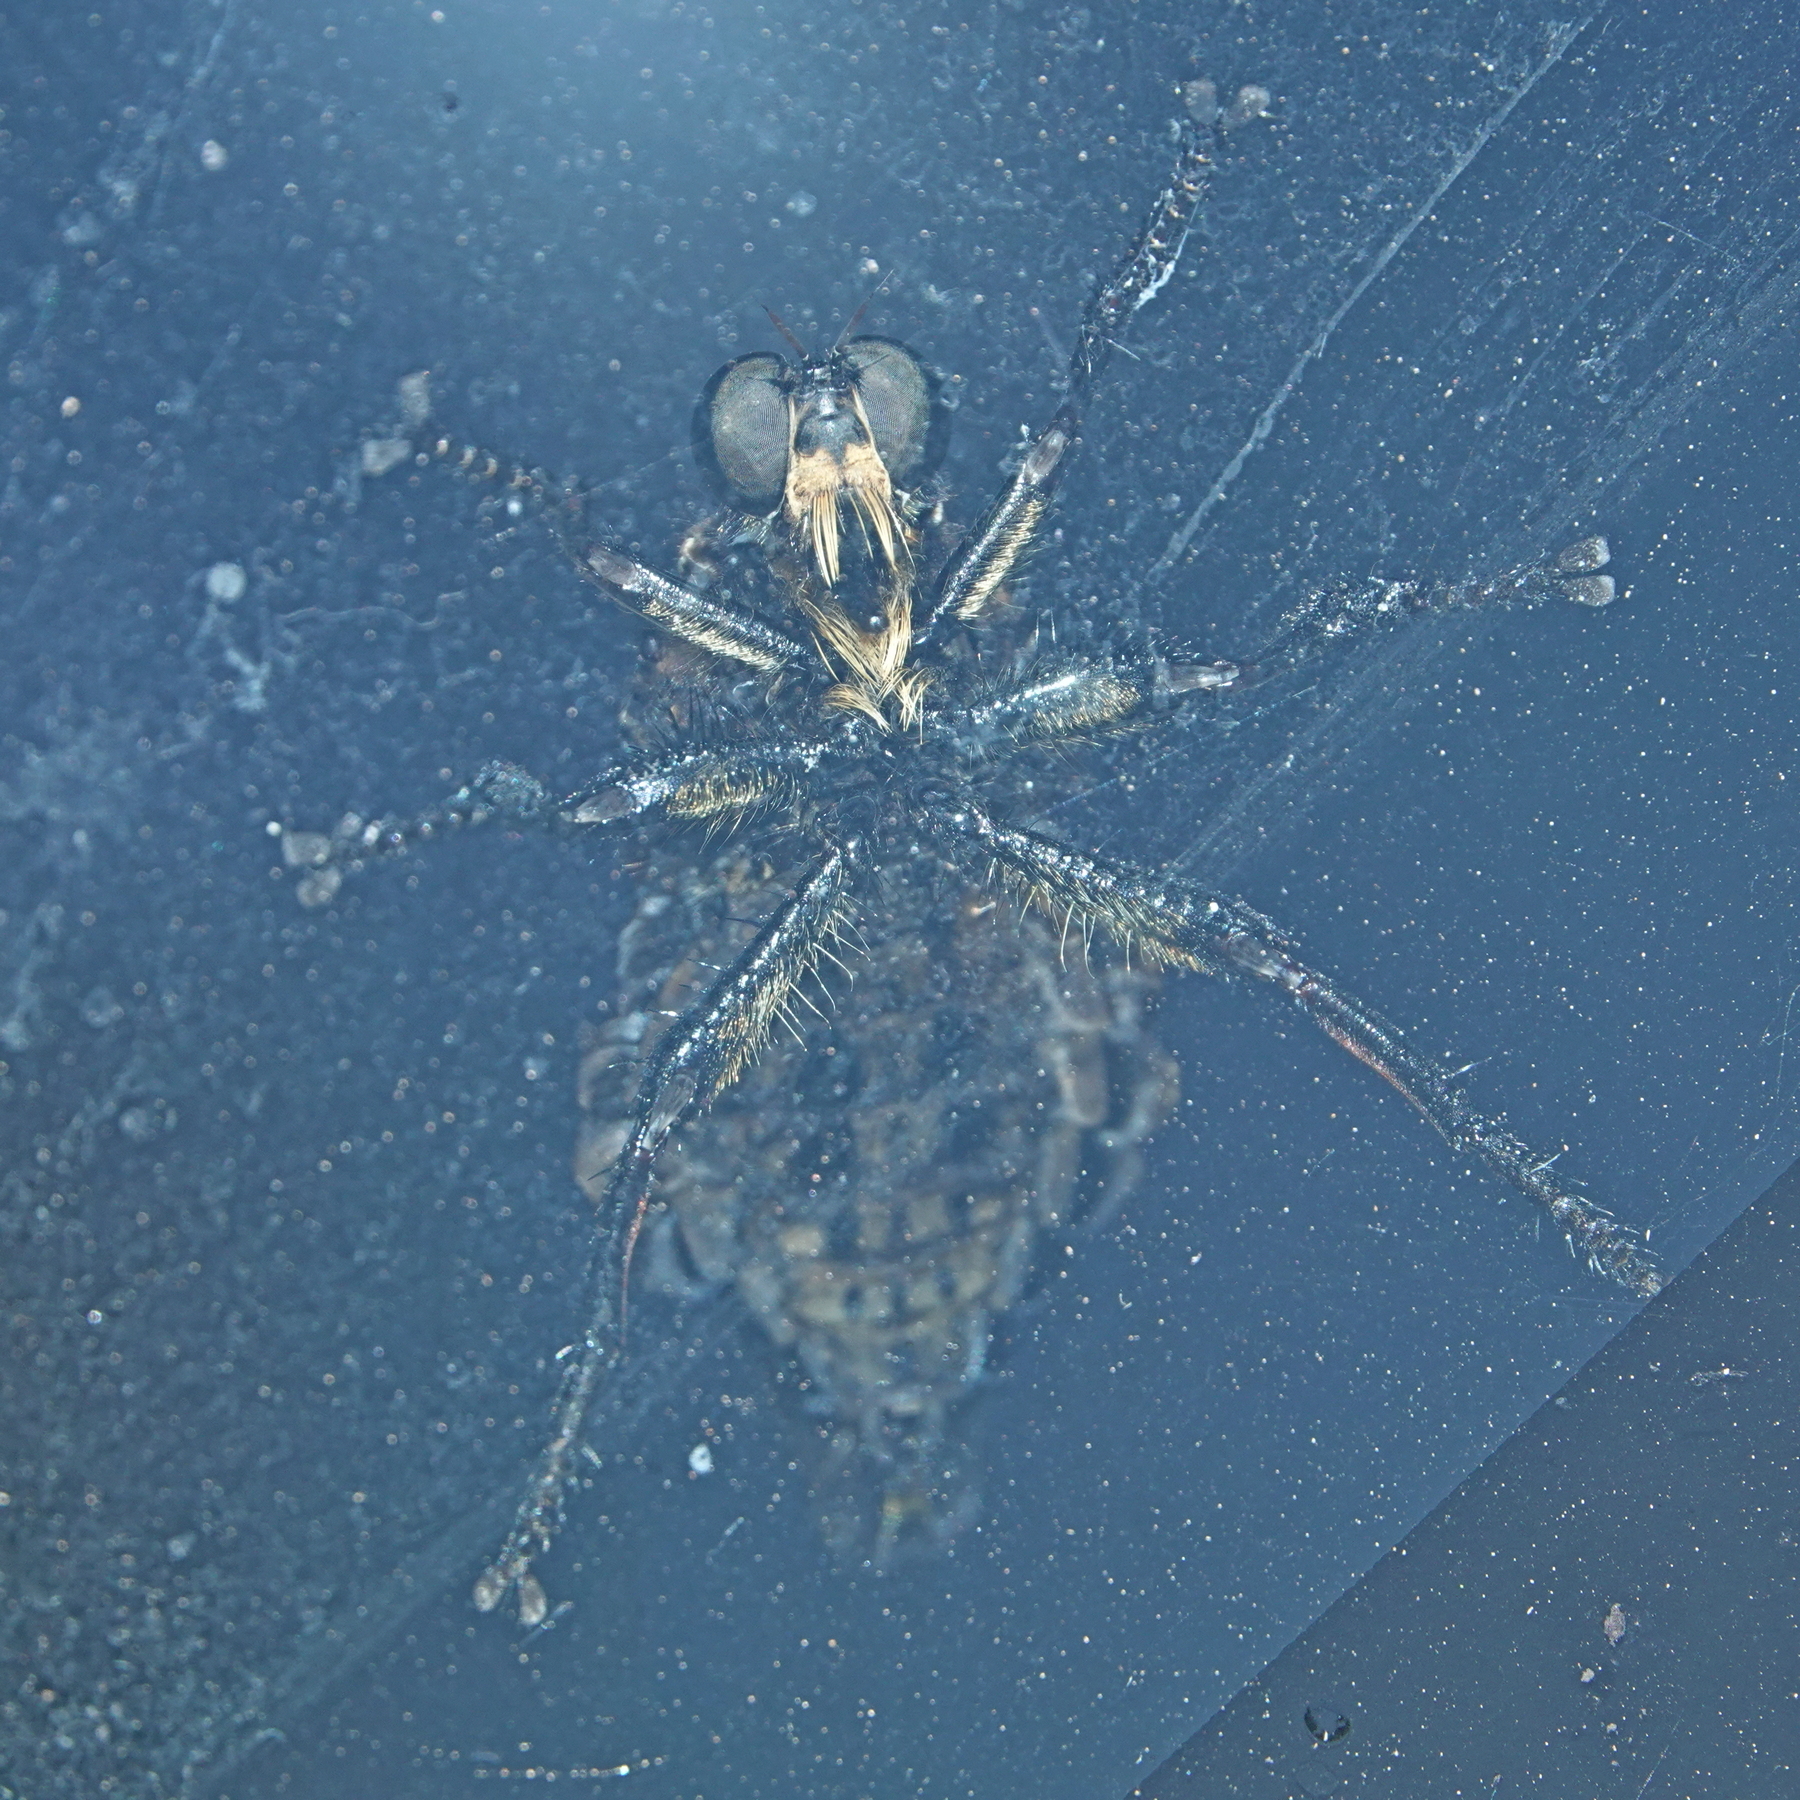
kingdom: Animalia
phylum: Arthropoda
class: Insecta
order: Diptera
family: Asilidae
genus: Blepharotes
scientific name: Blepharotes splendidissimus
